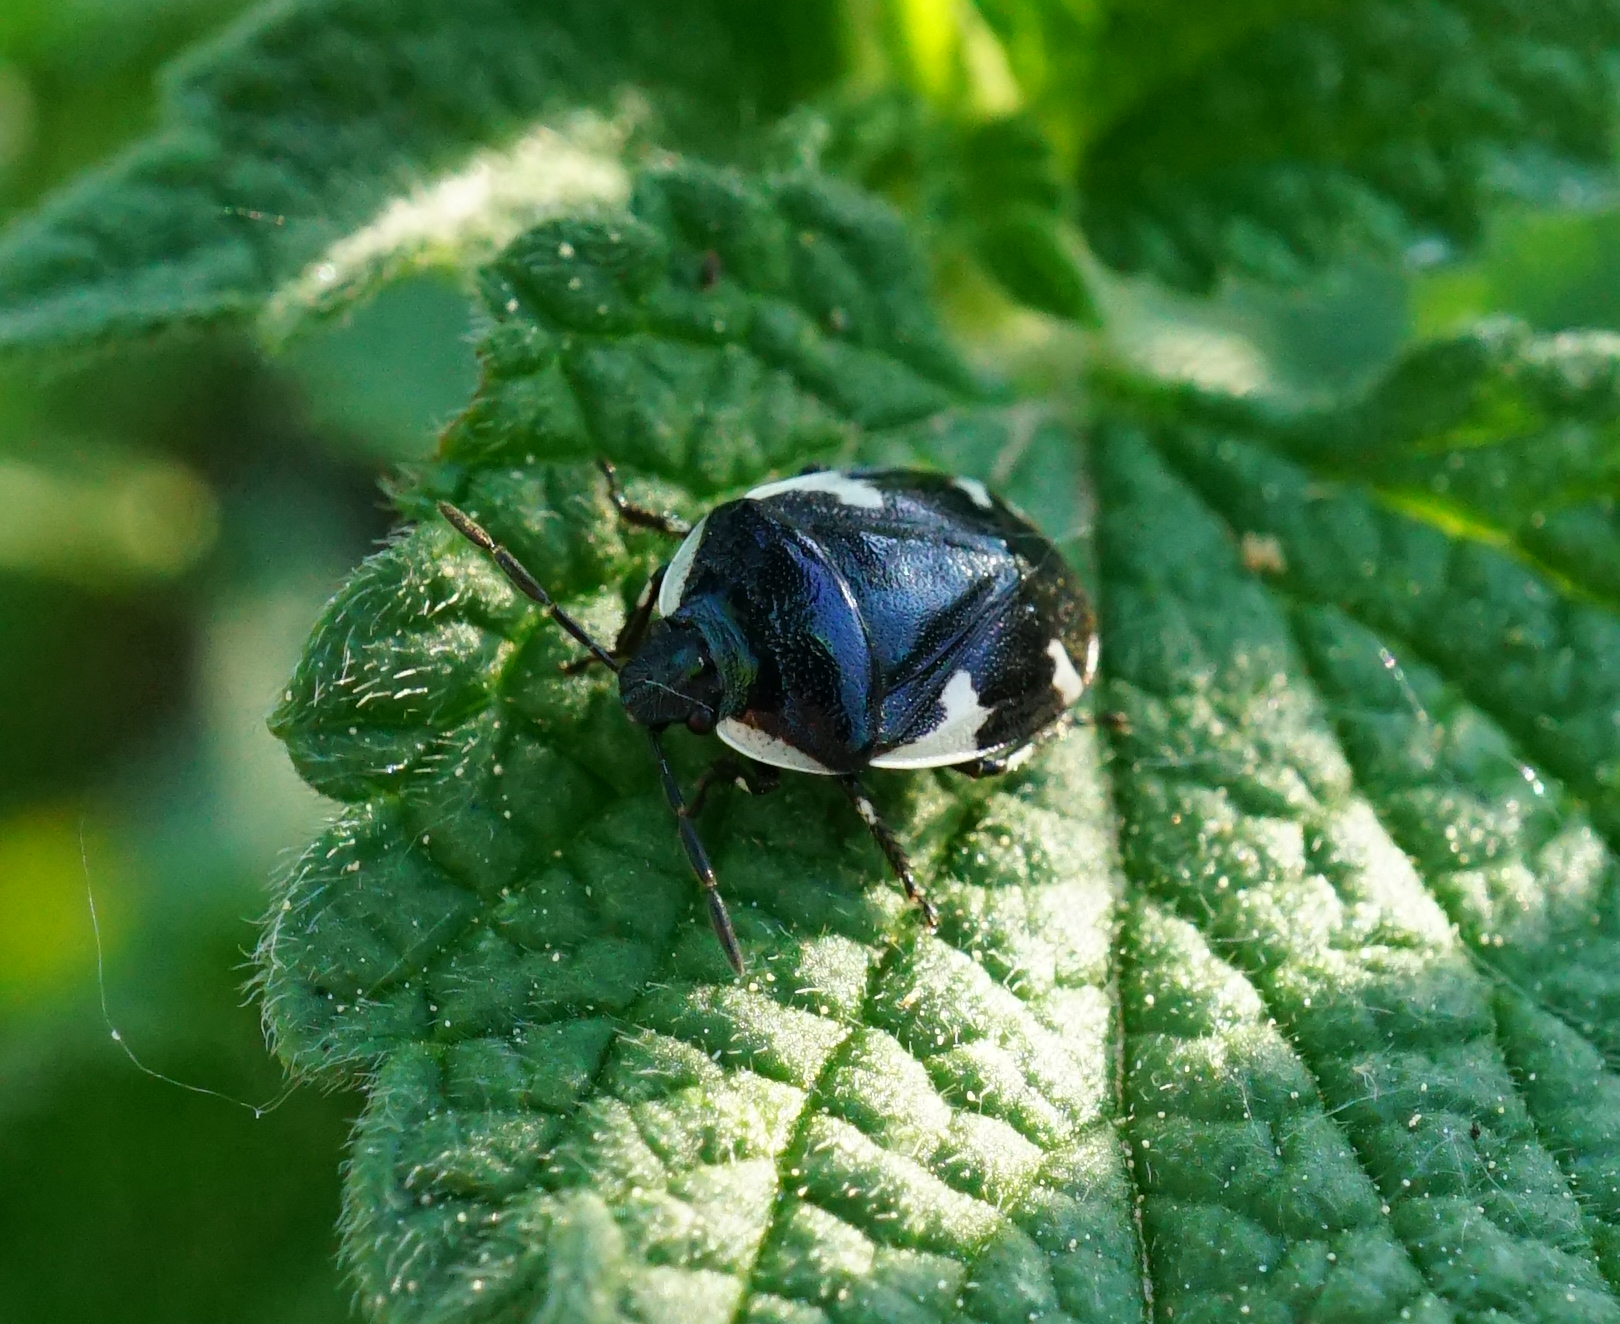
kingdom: Animalia
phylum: Arthropoda
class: Insecta
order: Hemiptera
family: Cydnidae
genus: Tritomegas
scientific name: Tritomegas sexmaculatus
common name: Rambur's pied shieldbug
